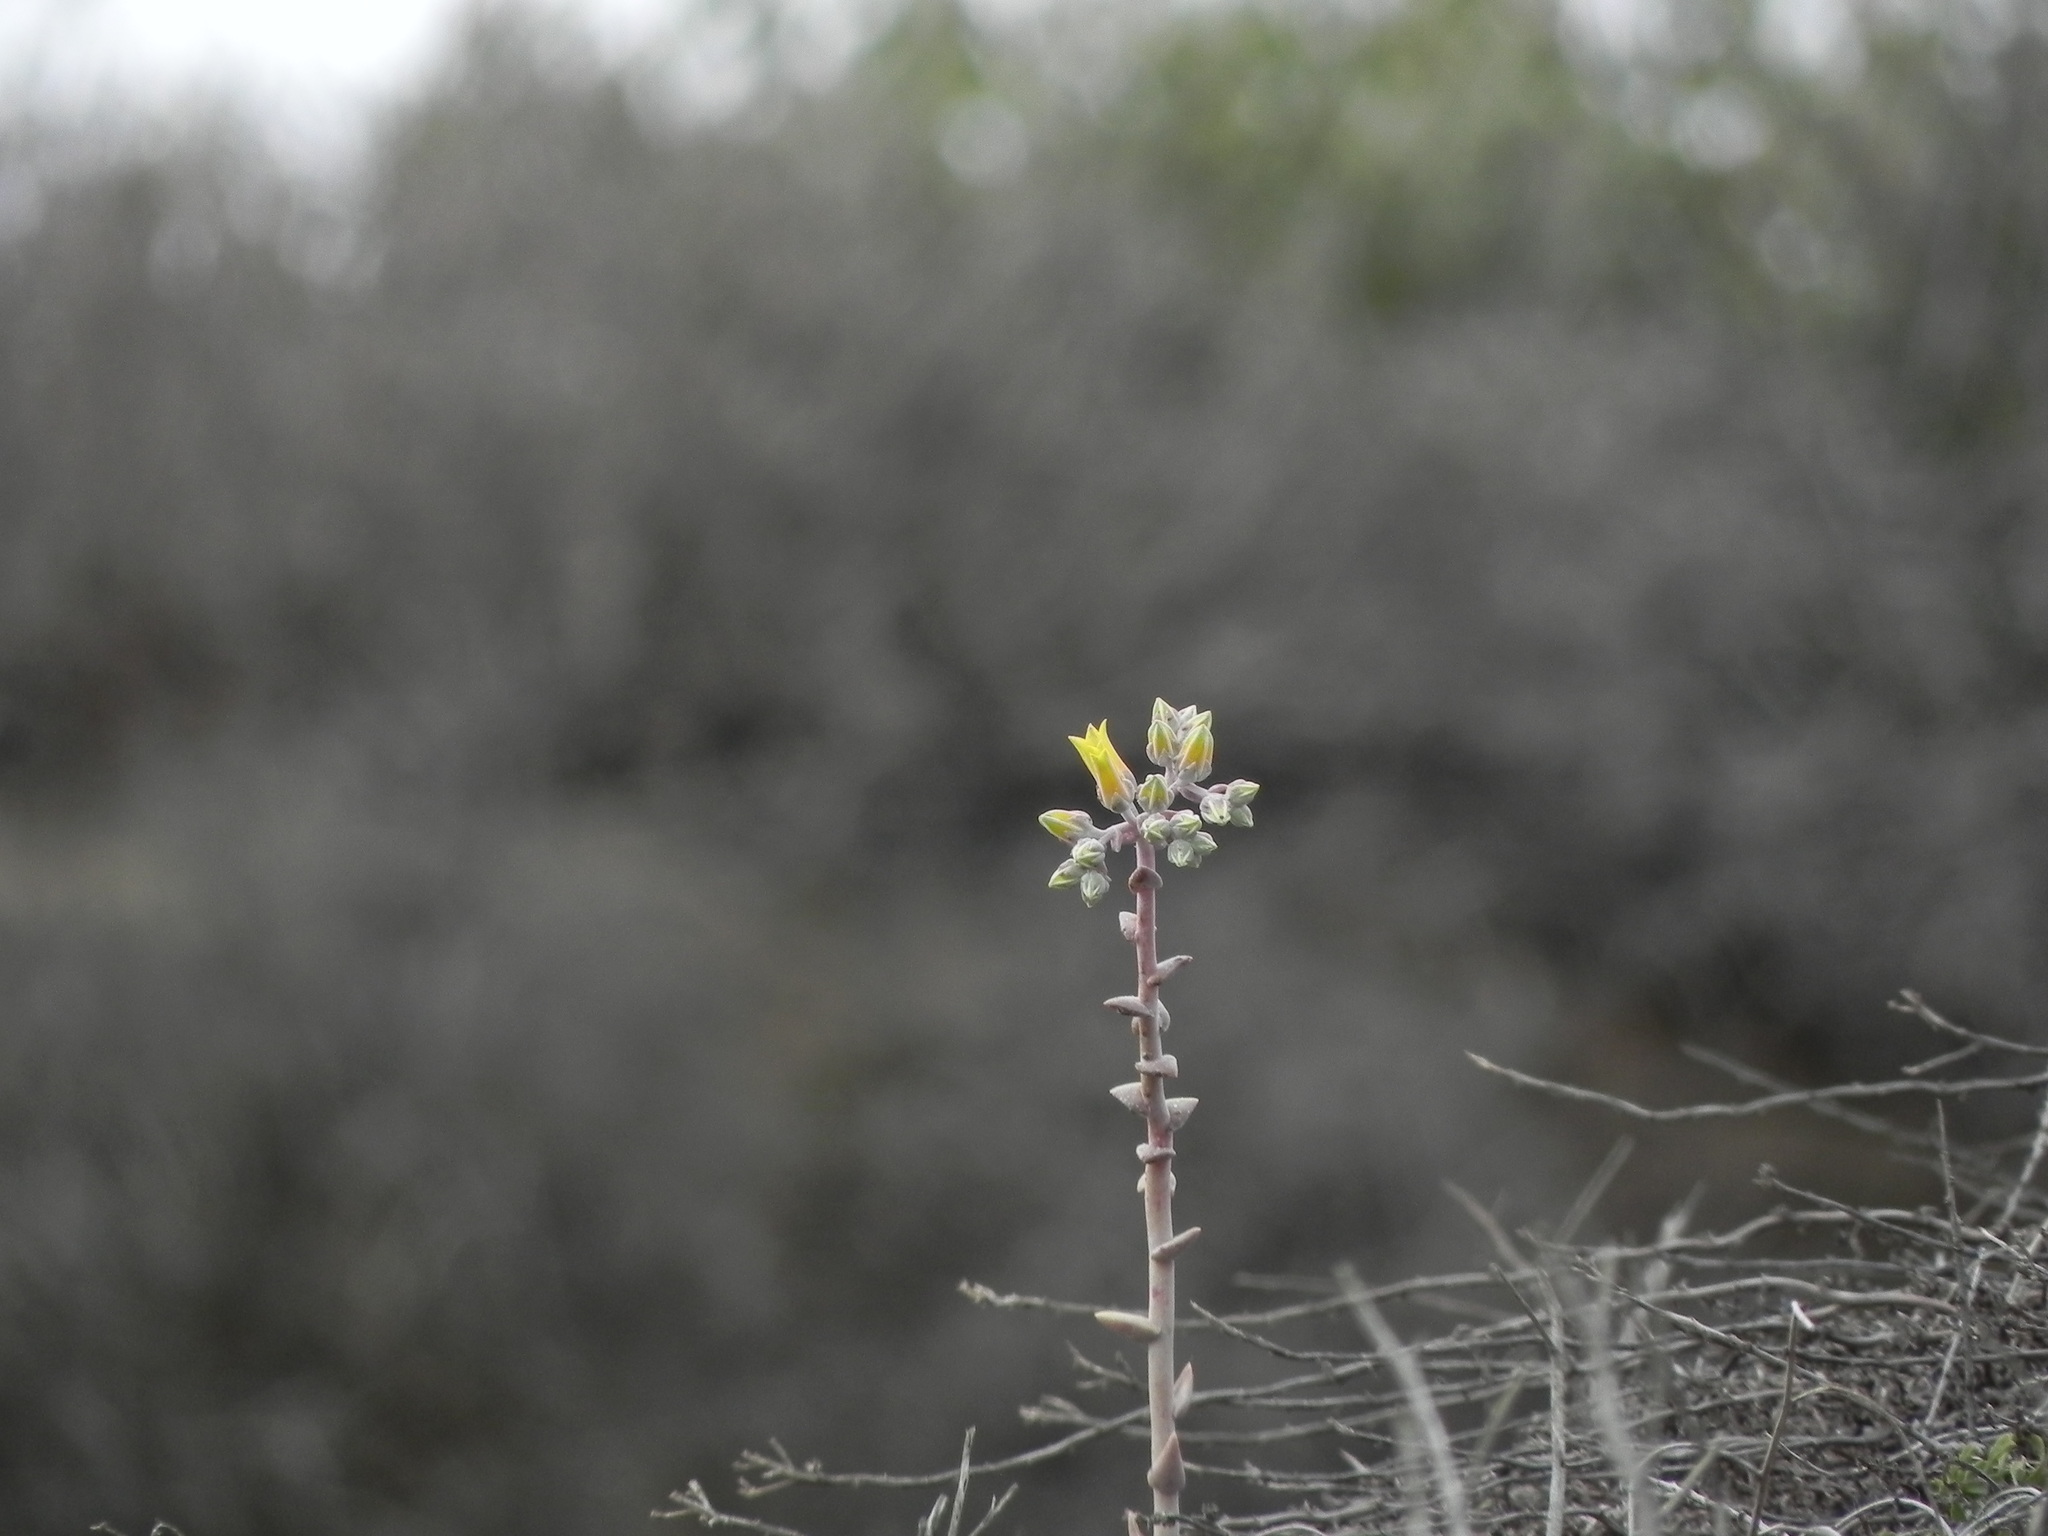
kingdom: Plantae
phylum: Tracheophyta
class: Magnoliopsida
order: Saxifragales
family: Crassulaceae
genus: Dudleya
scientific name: Dudleya caespitosa
